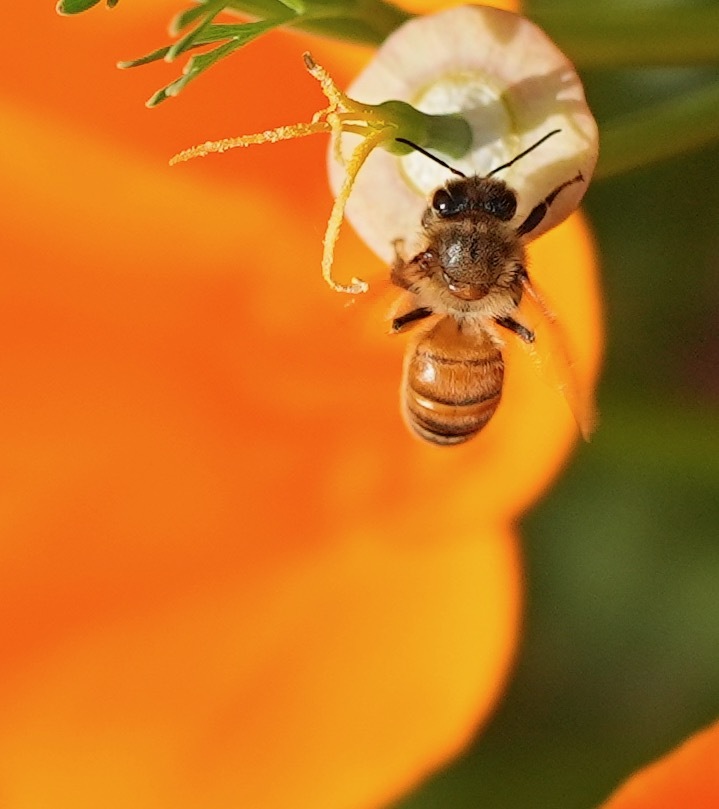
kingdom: Animalia
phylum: Arthropoda
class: Insecta
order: Hymenoptera
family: Apidae
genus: Apis
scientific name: Apis mellifera
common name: Honey bee
